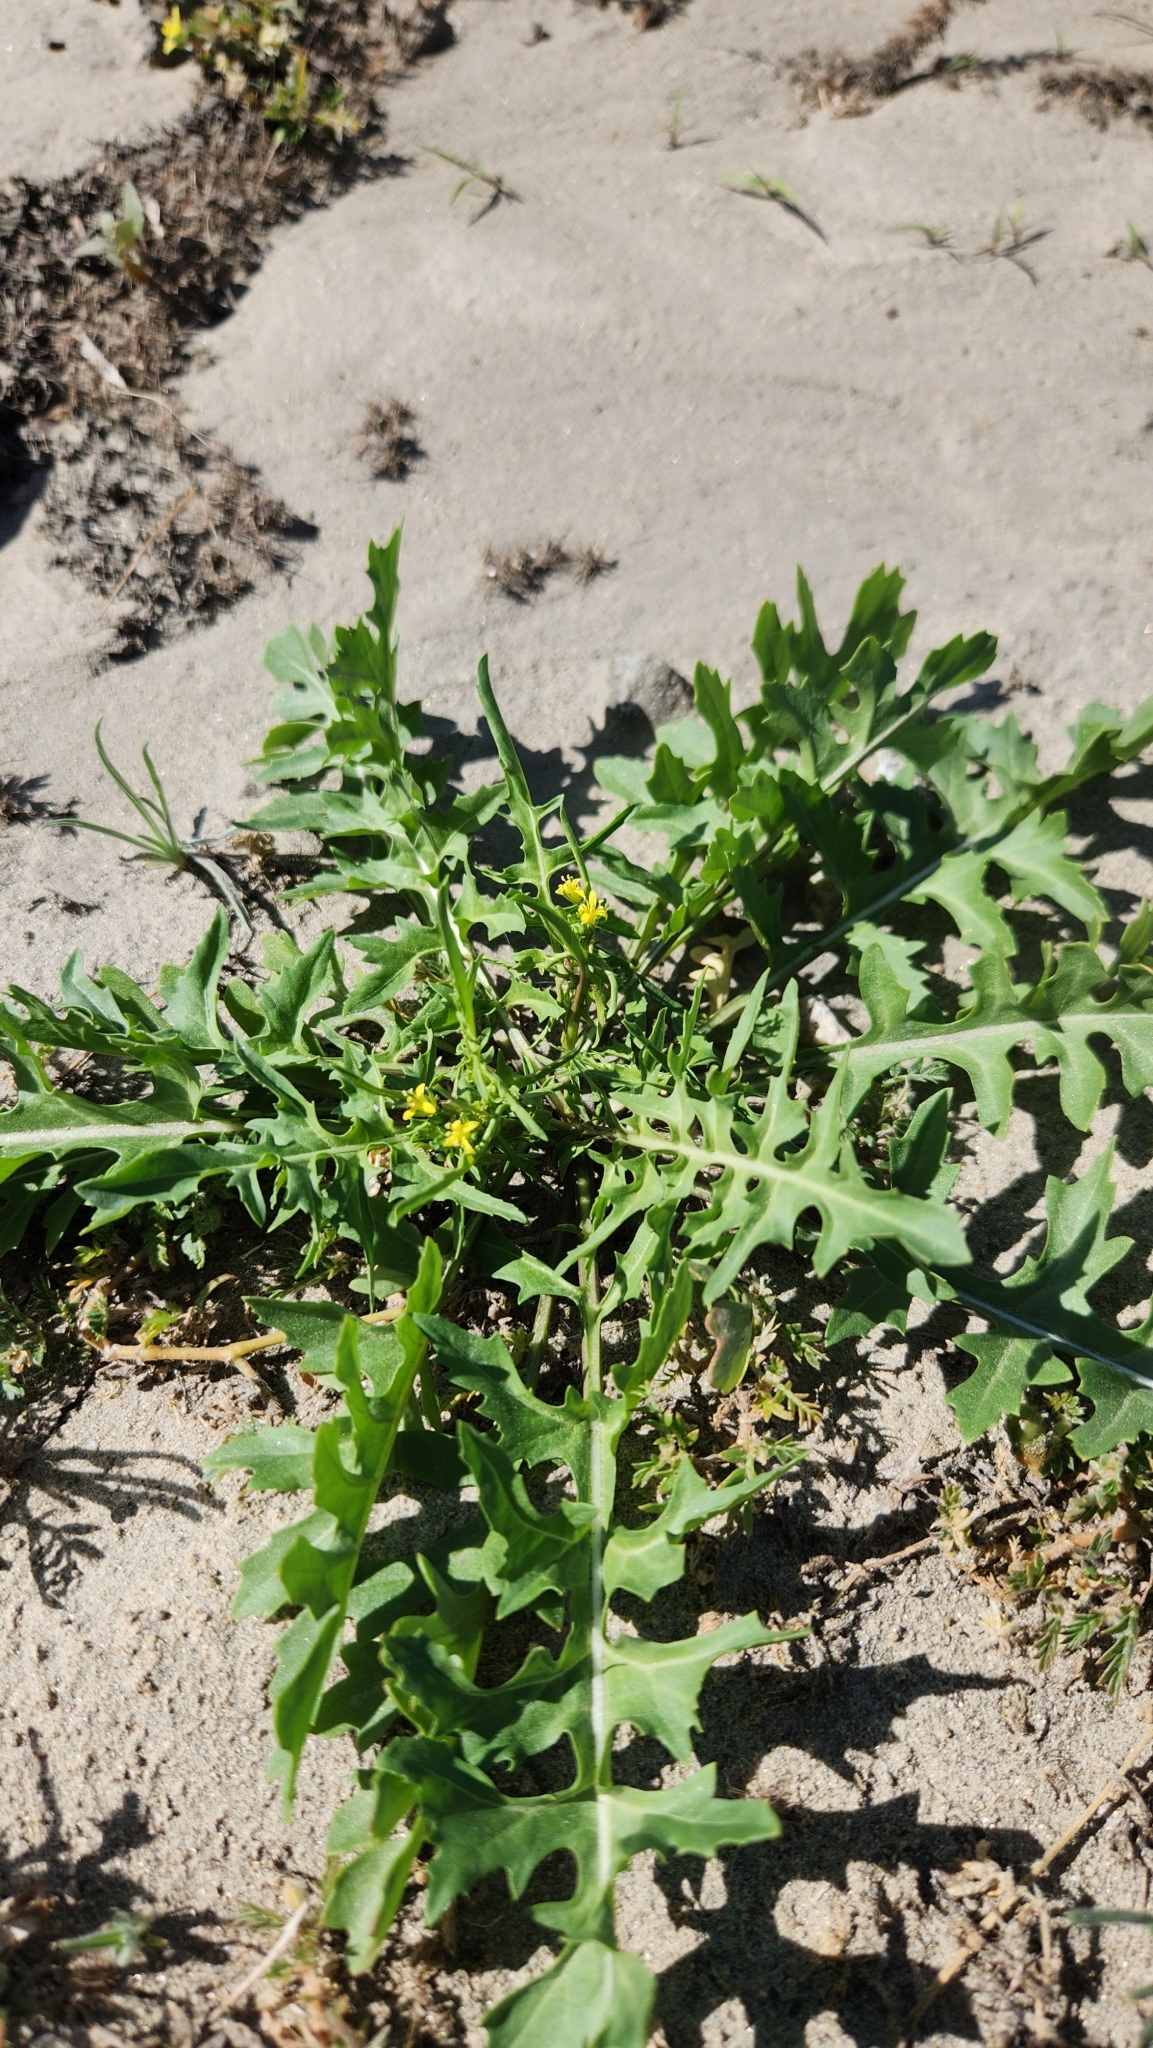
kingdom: Plantae
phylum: Tracheophyta
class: Magnoliopsida
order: Brassicales
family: Brassicaceae
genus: Sisymbrium
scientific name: Sisymbrium irio
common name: London rocket
